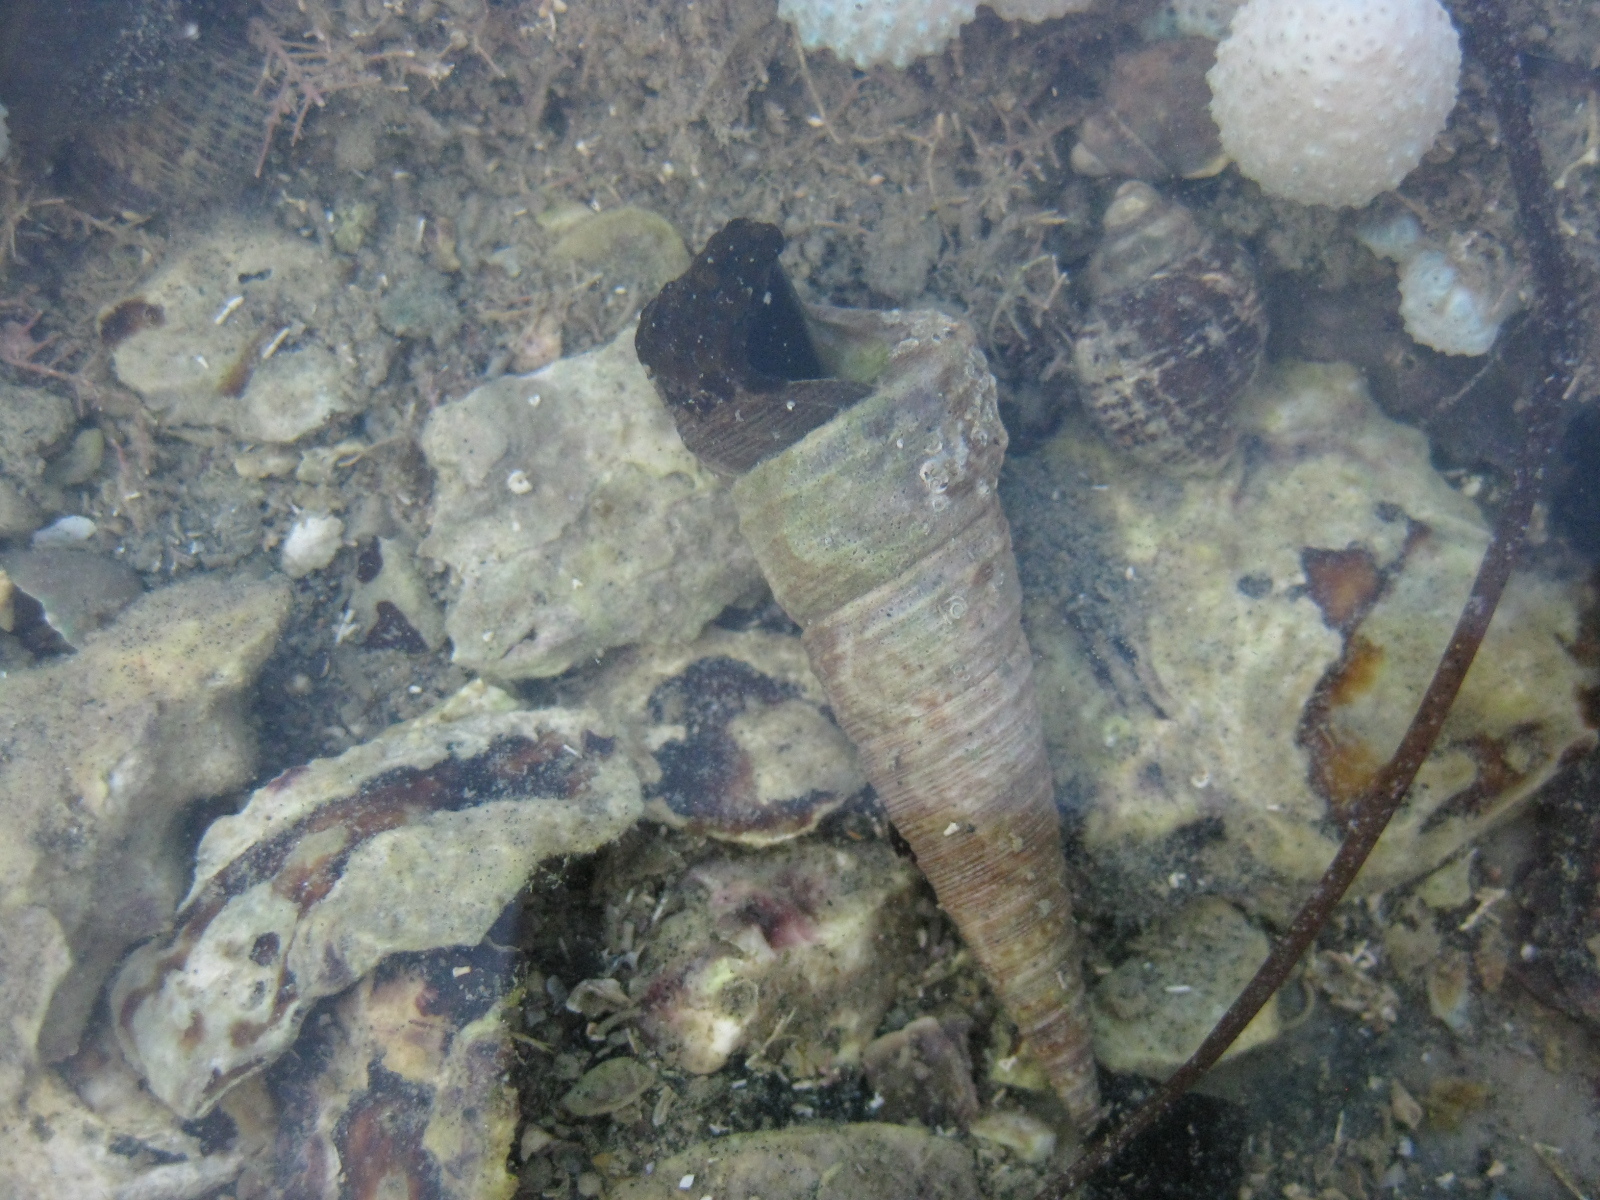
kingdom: Animalia
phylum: Mollusca
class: Gastropoda
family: Turritellidae
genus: Maoricolpus
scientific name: Maoricolpus roseus
